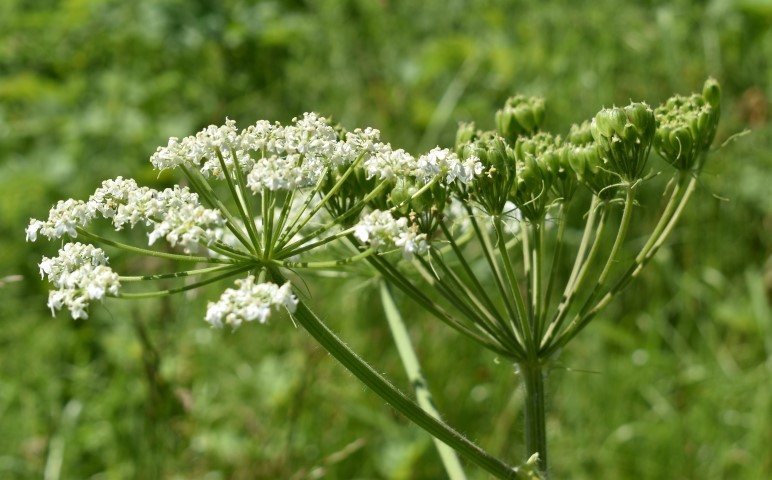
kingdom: Plantae
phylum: Tracheophyta
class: Magnoliopsida
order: Apiales
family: Apiaceae
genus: Heracleum
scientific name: Heracleum maximum
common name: American cow parsnip
